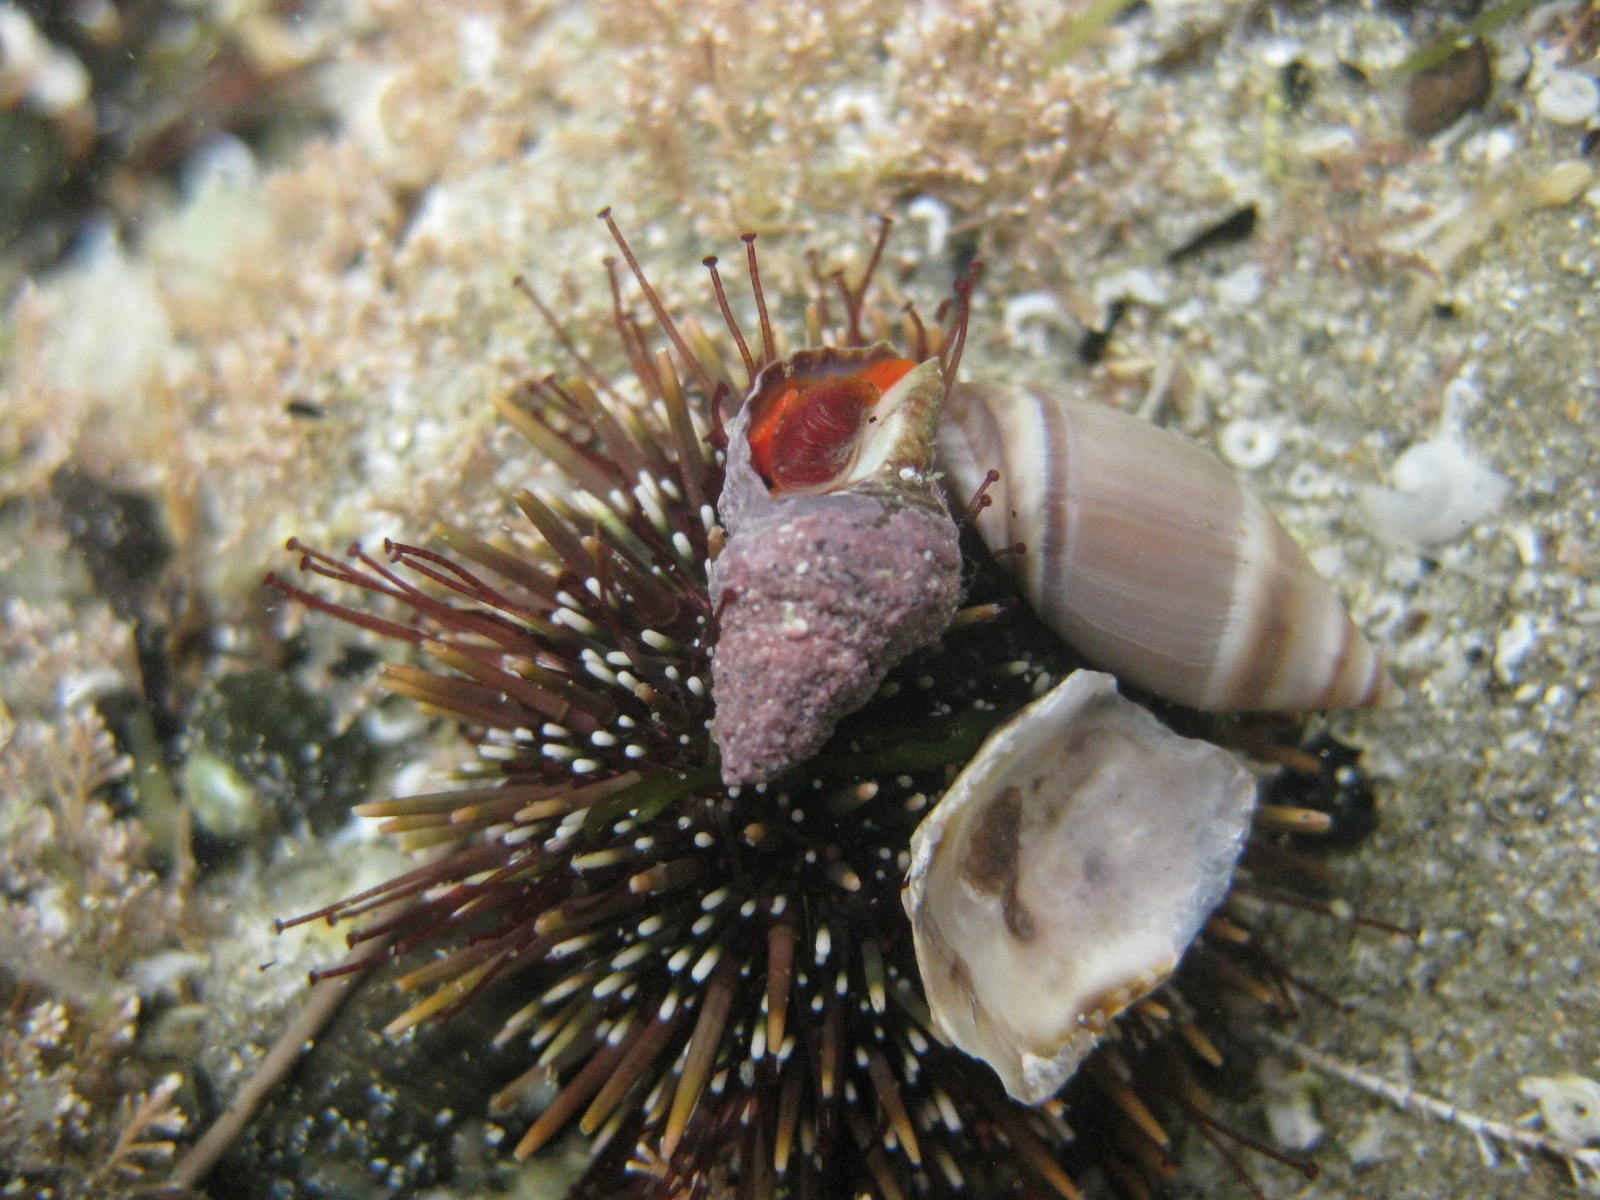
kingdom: Animalia
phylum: Mollusca
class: Gastropoda
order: Neogastropoda
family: Fasciolariidae
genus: Taron
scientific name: Taron dubius
